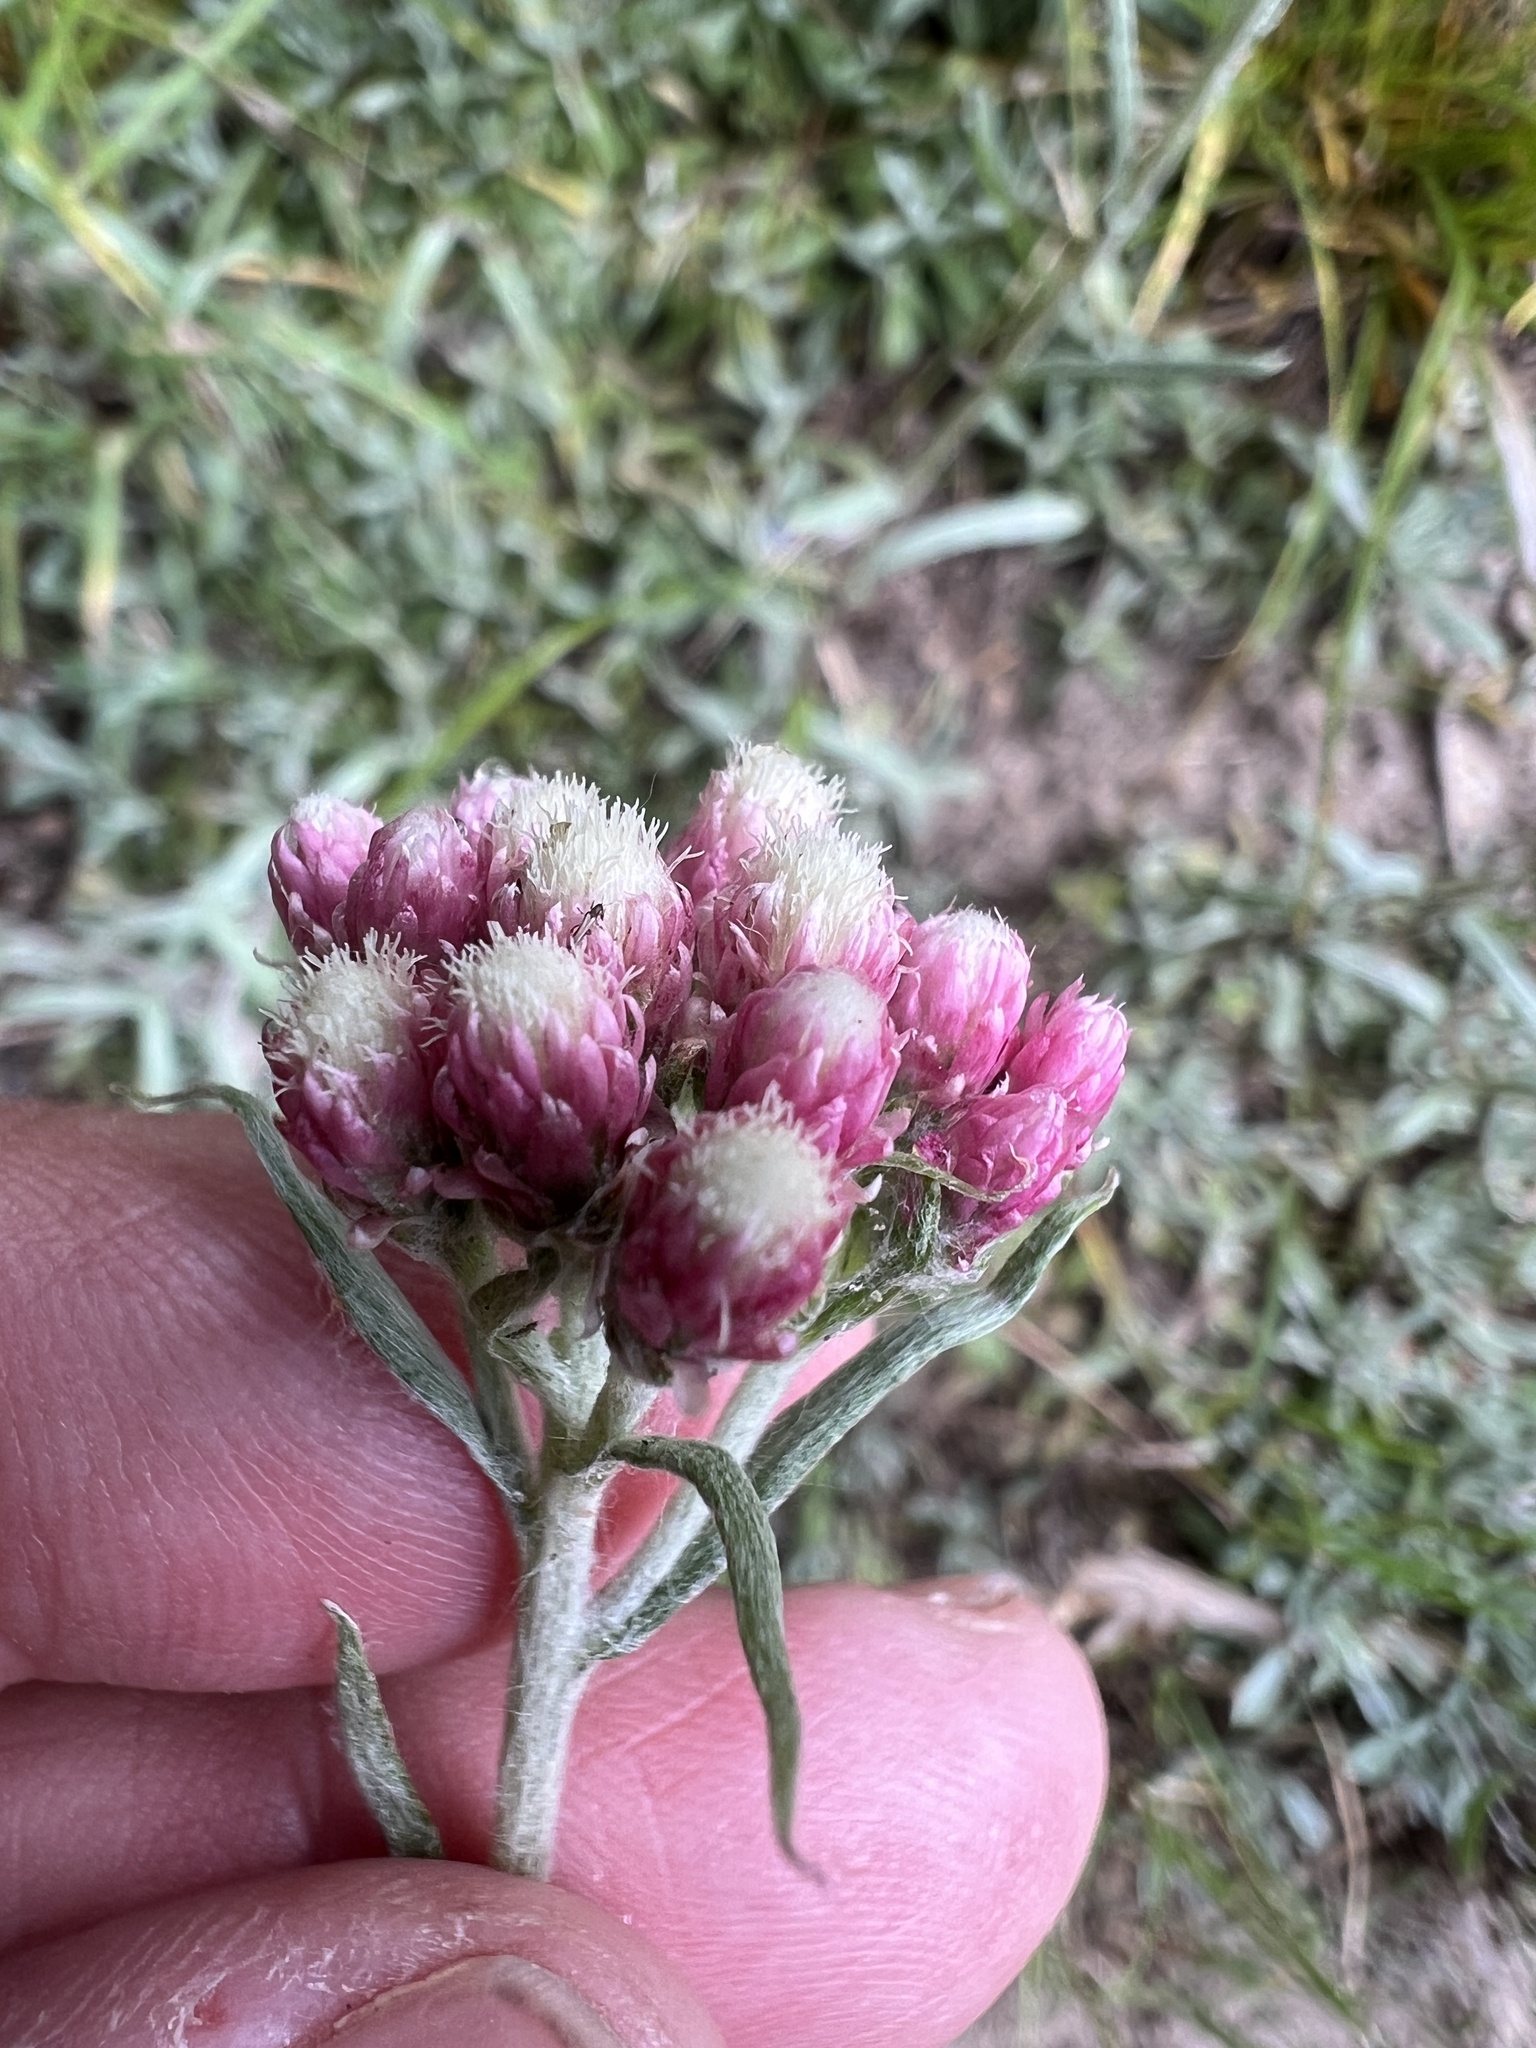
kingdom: Plantae
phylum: Tracheophyta
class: Magnoliopsida
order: Asterales
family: Asteraceae
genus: Antennaria
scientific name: Antennaria rosea
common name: Rosy pussytoes
